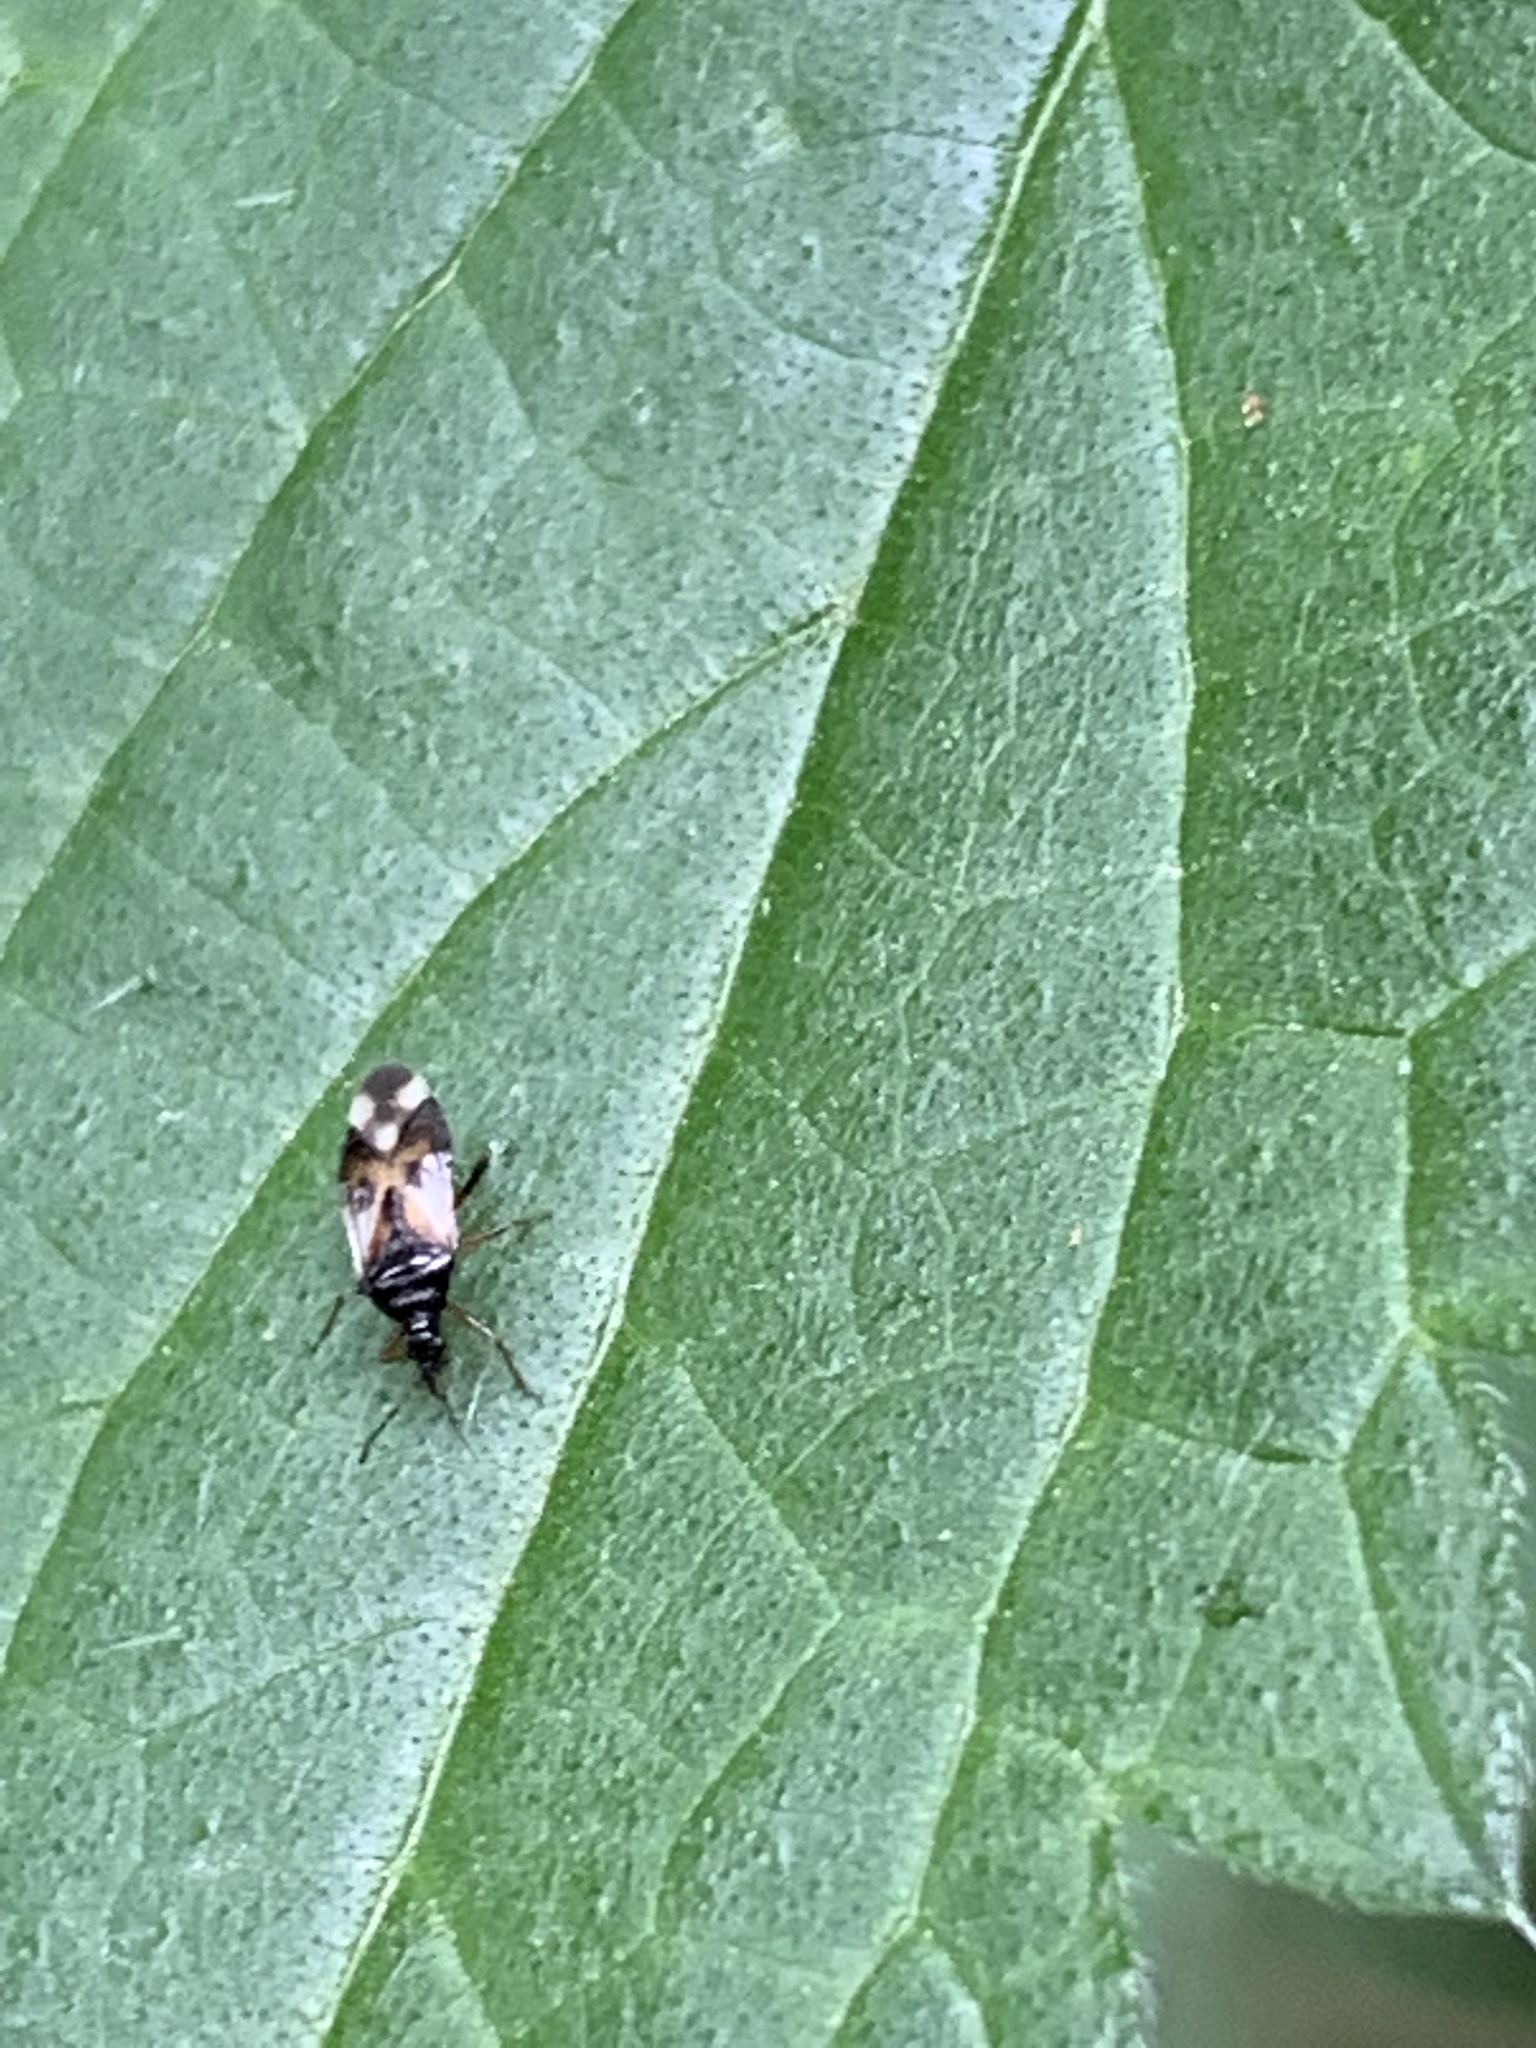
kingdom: Animalia
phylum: Arthropoda
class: Insecta
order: Hemiptera
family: Anthocoridae
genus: Anthocoris
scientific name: Anthocoris nemorum
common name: Minute pirate bug
